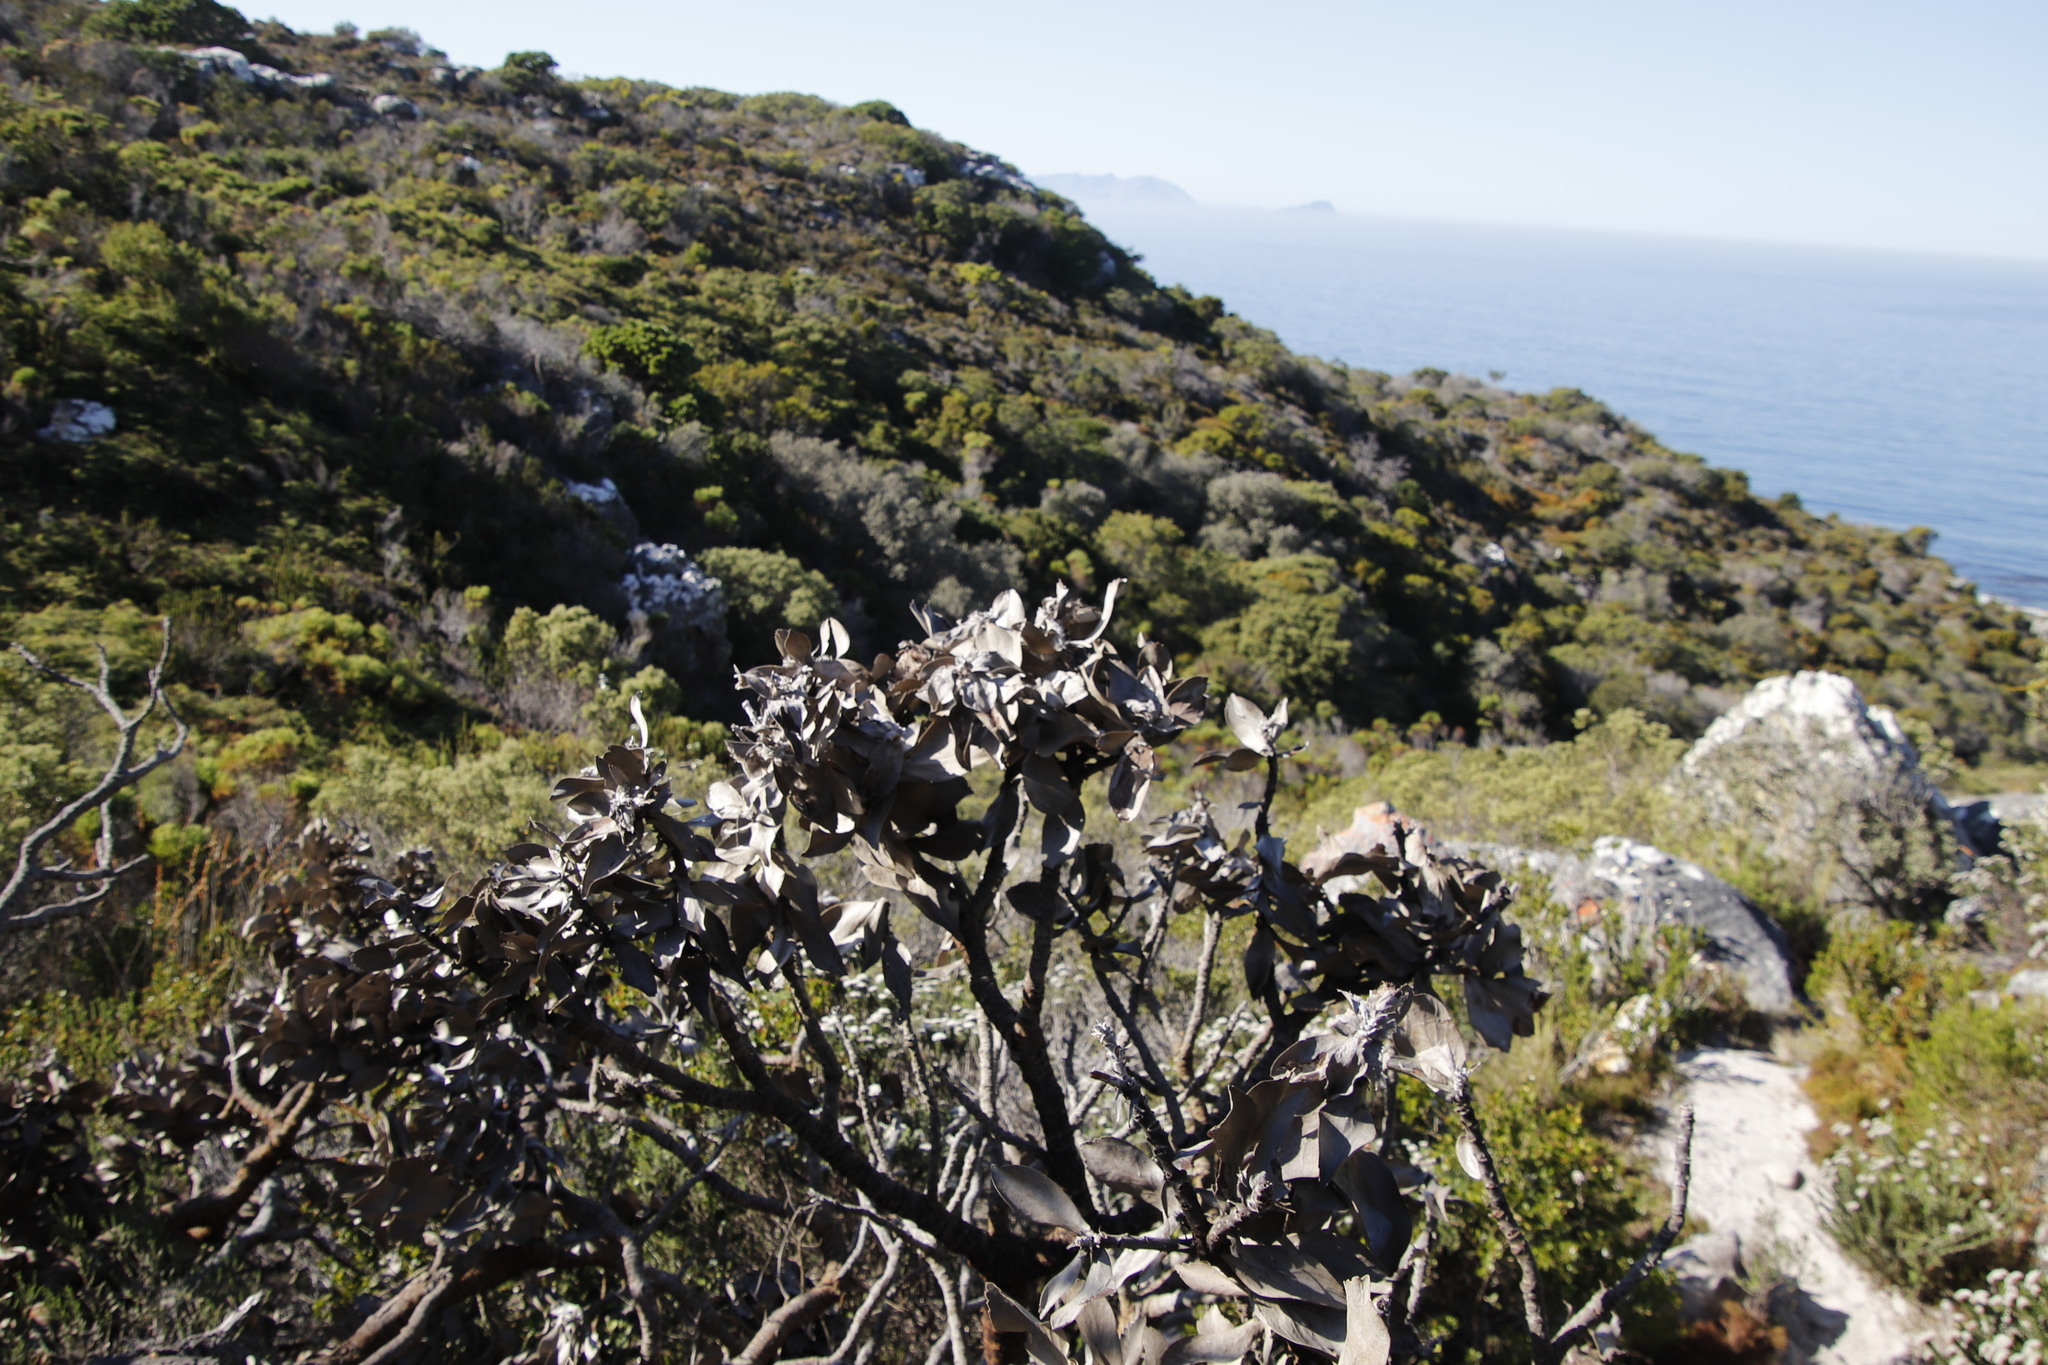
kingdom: Plantae
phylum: Tracheophyta
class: Magnoliopsida
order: Proteales
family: Proteaceae
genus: Leucospermum
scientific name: Leucospermum conocarpodendron
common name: Tree pincushion
